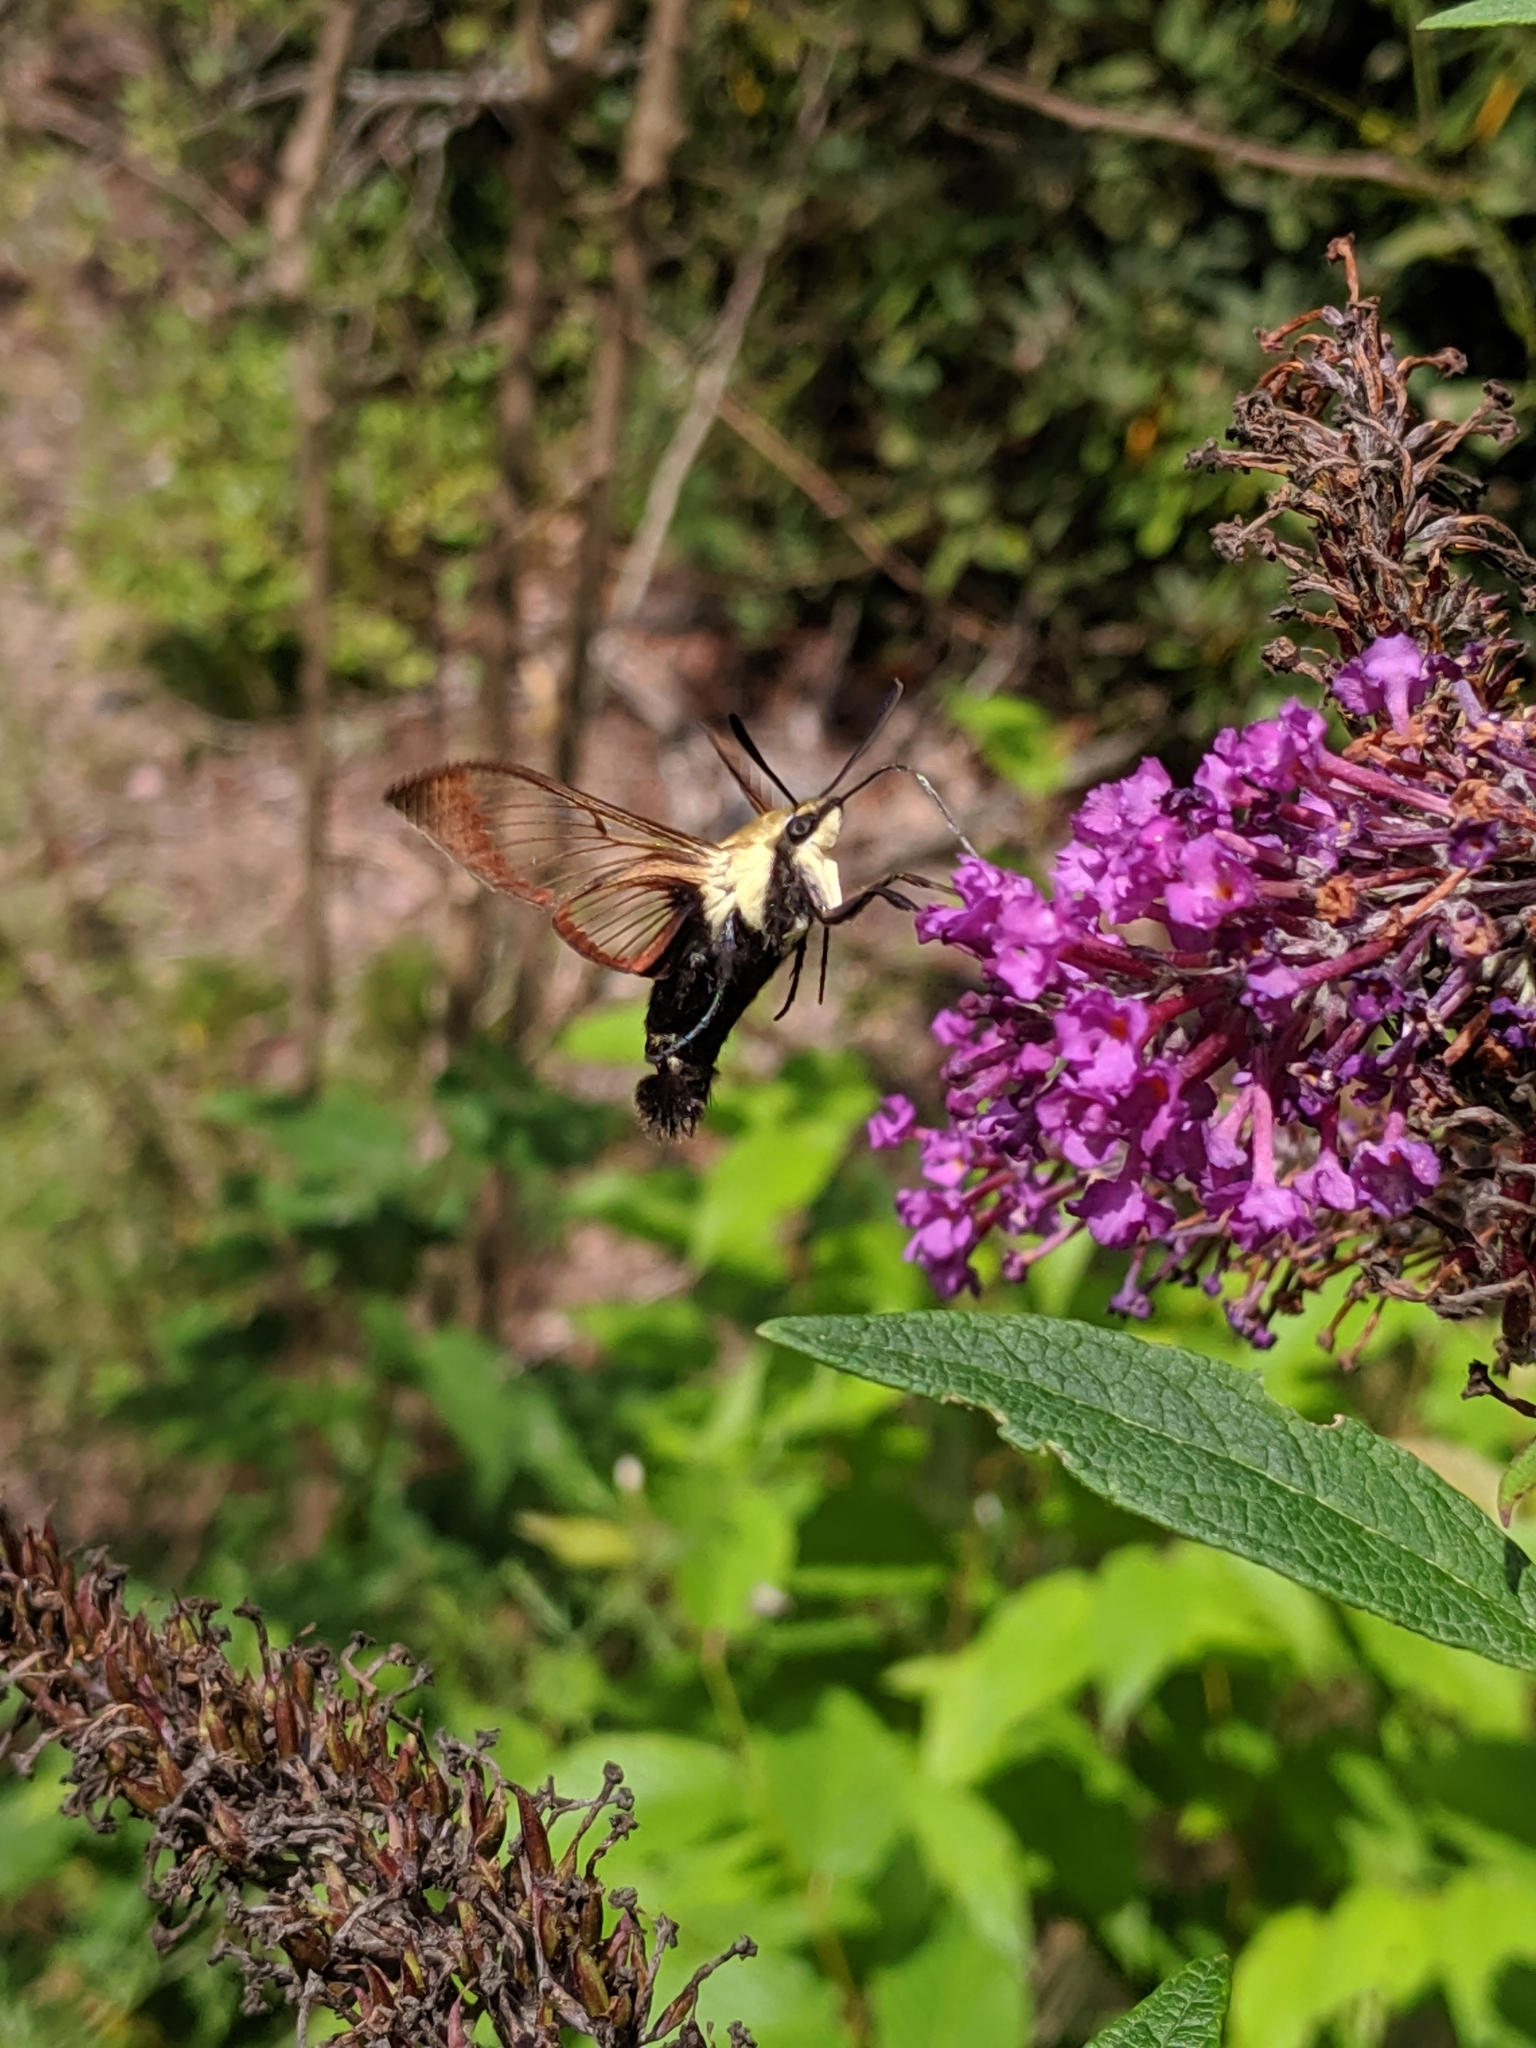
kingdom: Animalia
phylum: Arthropoda
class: Insecta
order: Lepidoptera
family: Sphingidae
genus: Hemaris
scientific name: Hemaris diffinis
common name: Bumblebee moth
